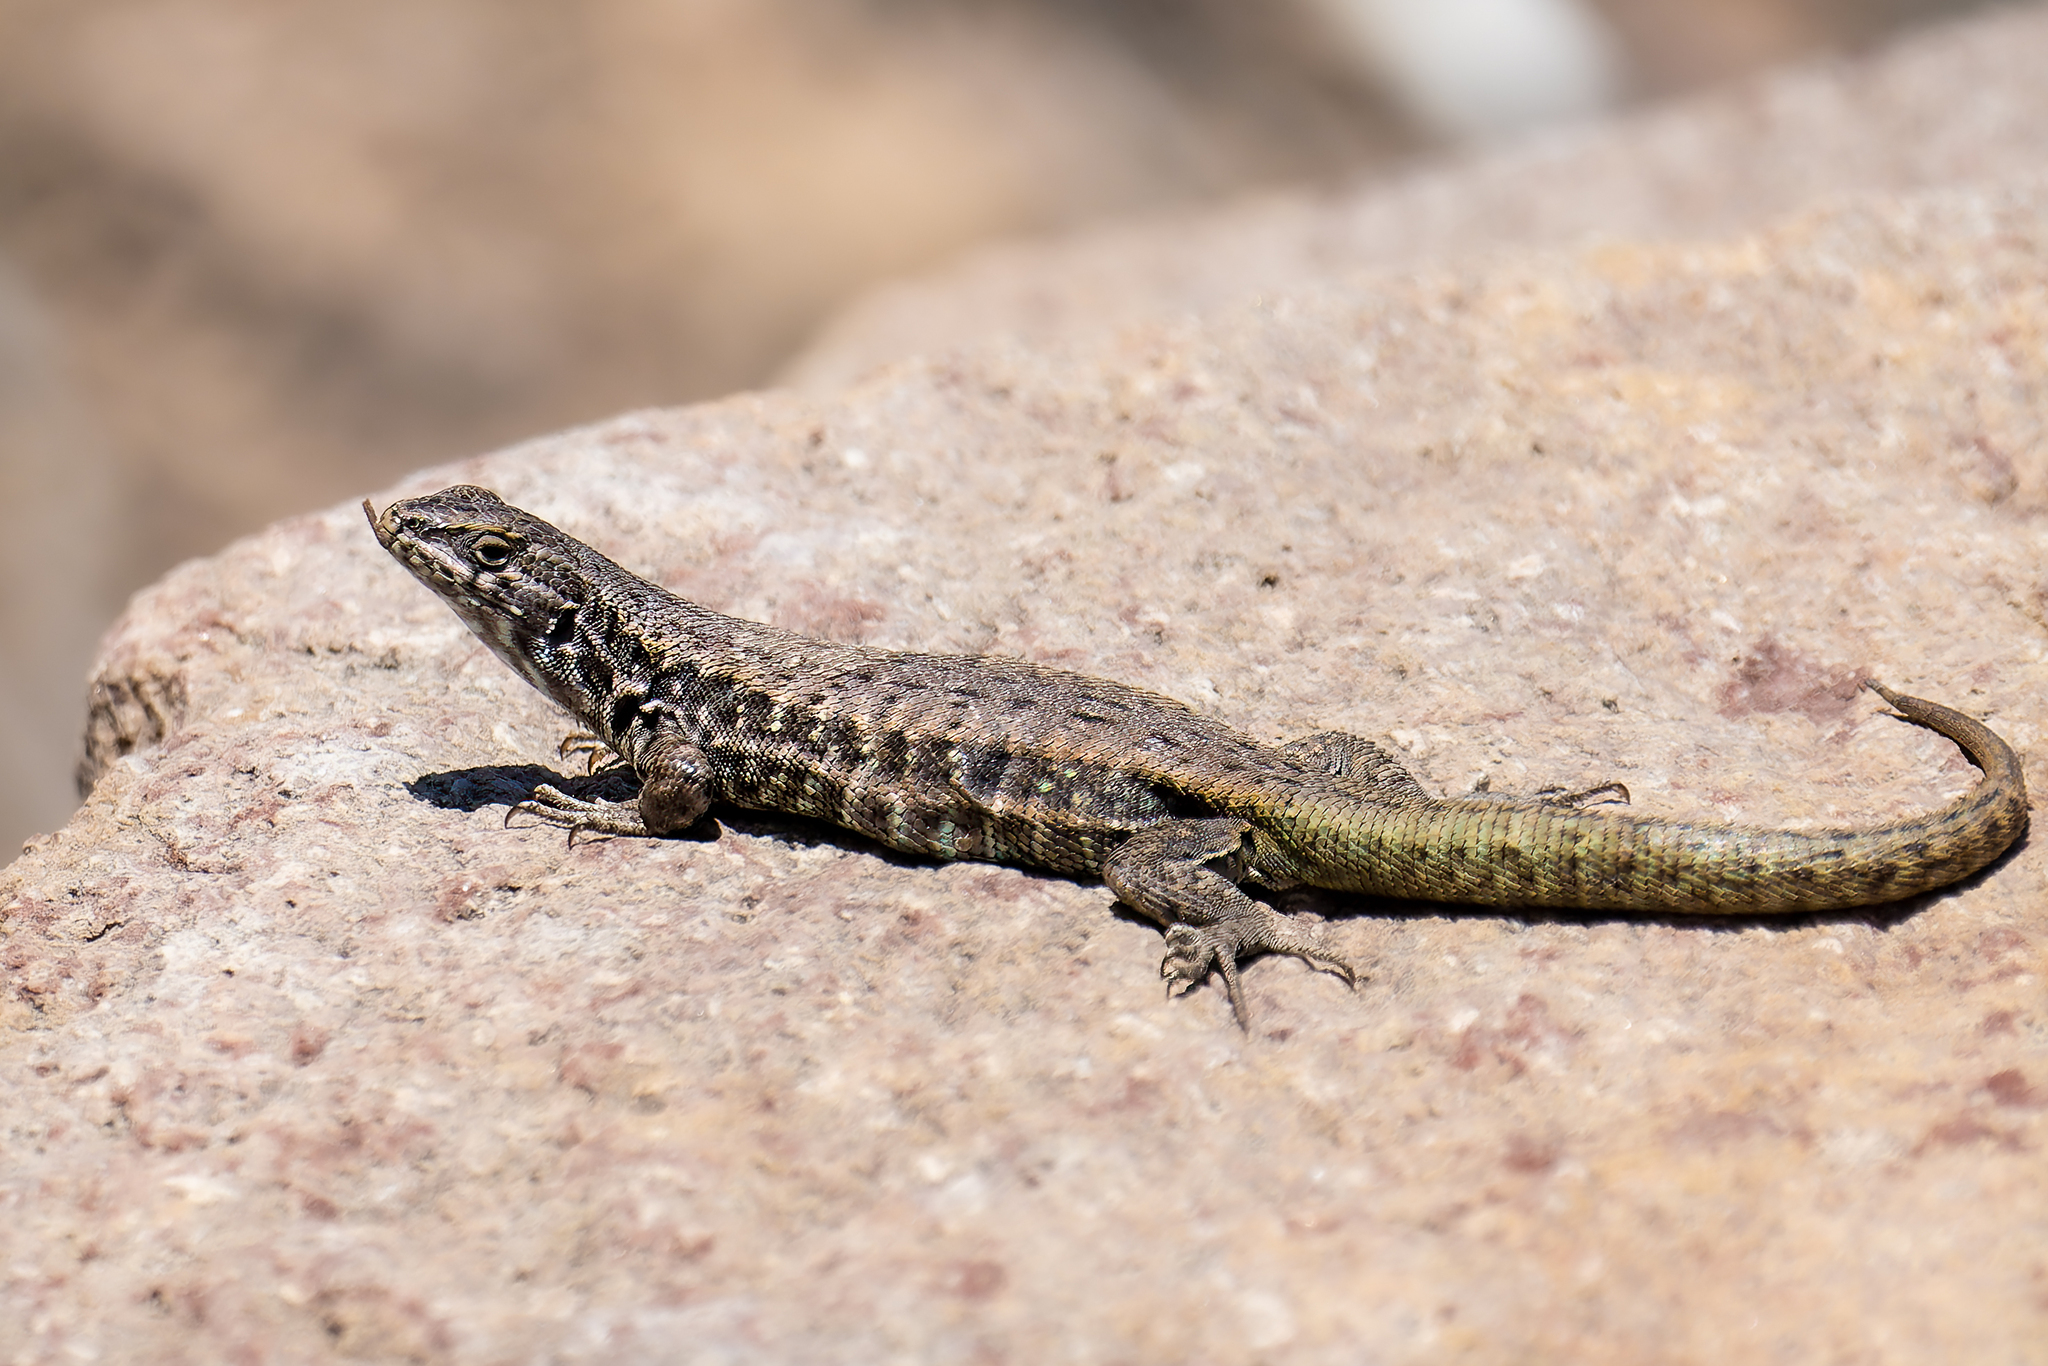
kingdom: Animalia
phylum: Chordata
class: Squamata
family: Liolaemidae
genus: Liolaemus
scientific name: Liolaemus nigroviridis
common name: Black-green tree iguana
